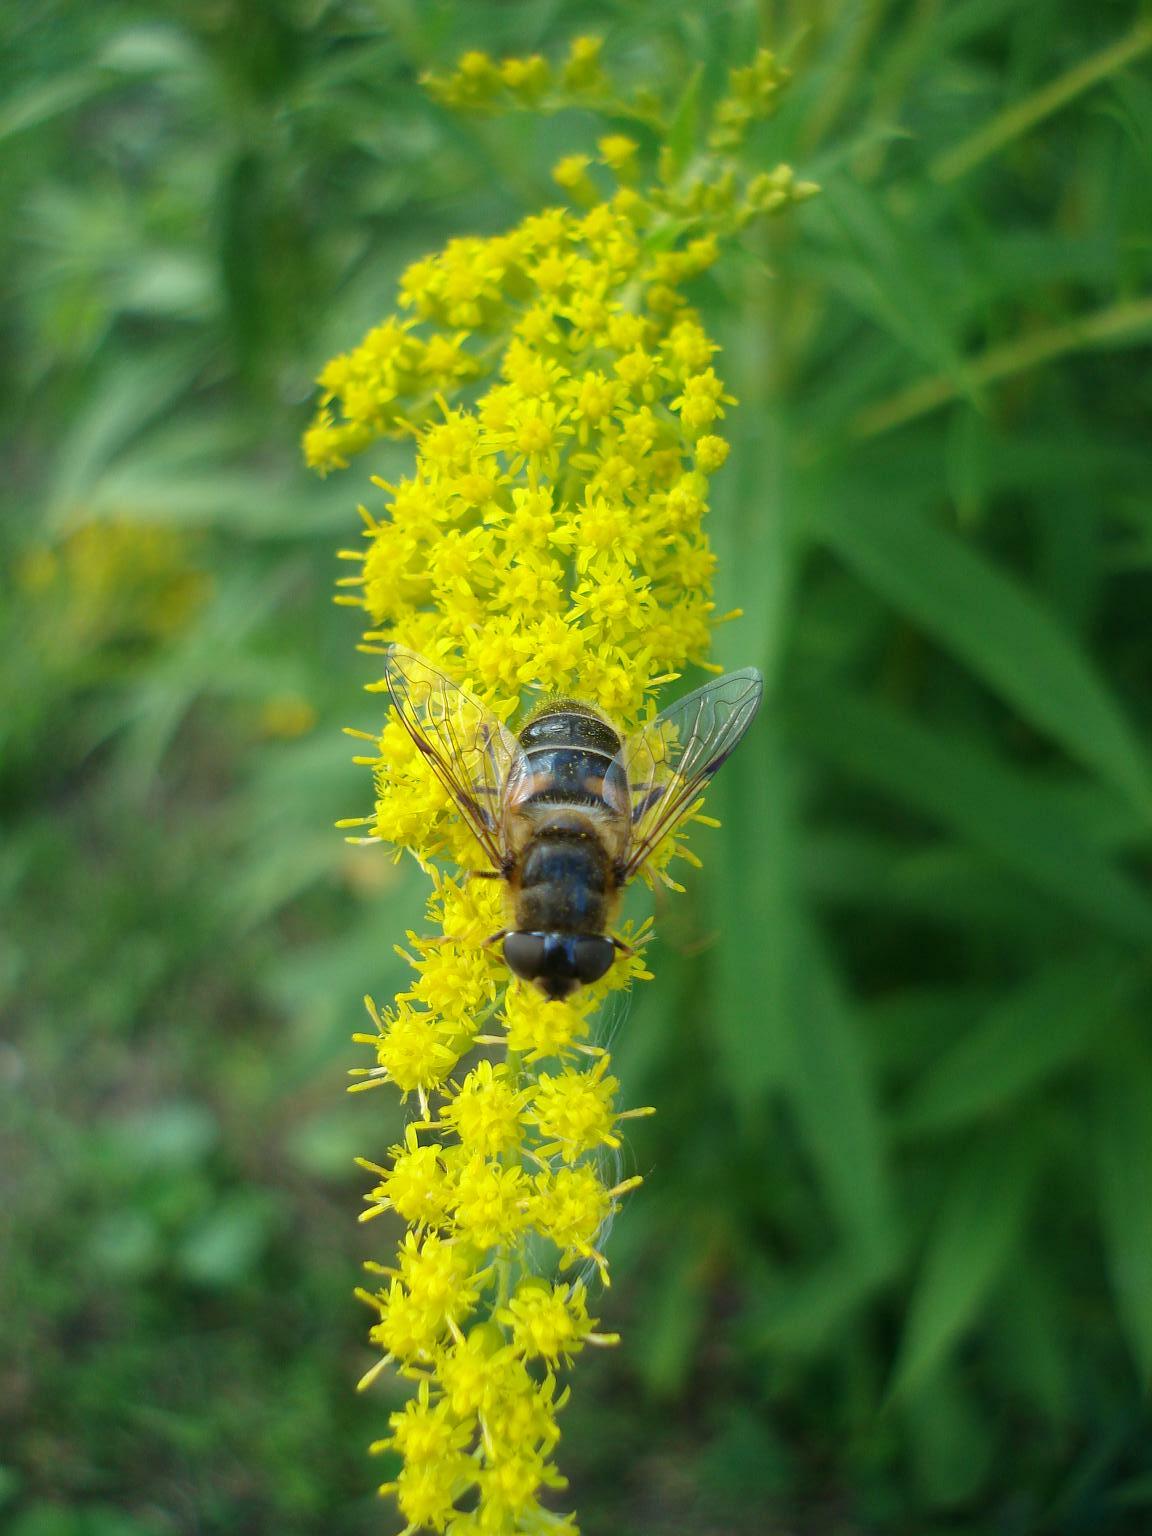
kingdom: Animalia
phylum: Arthropoda
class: Insecta
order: Diptera
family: Syrphidae
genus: Eristalis
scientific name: Eristalis pertinax
